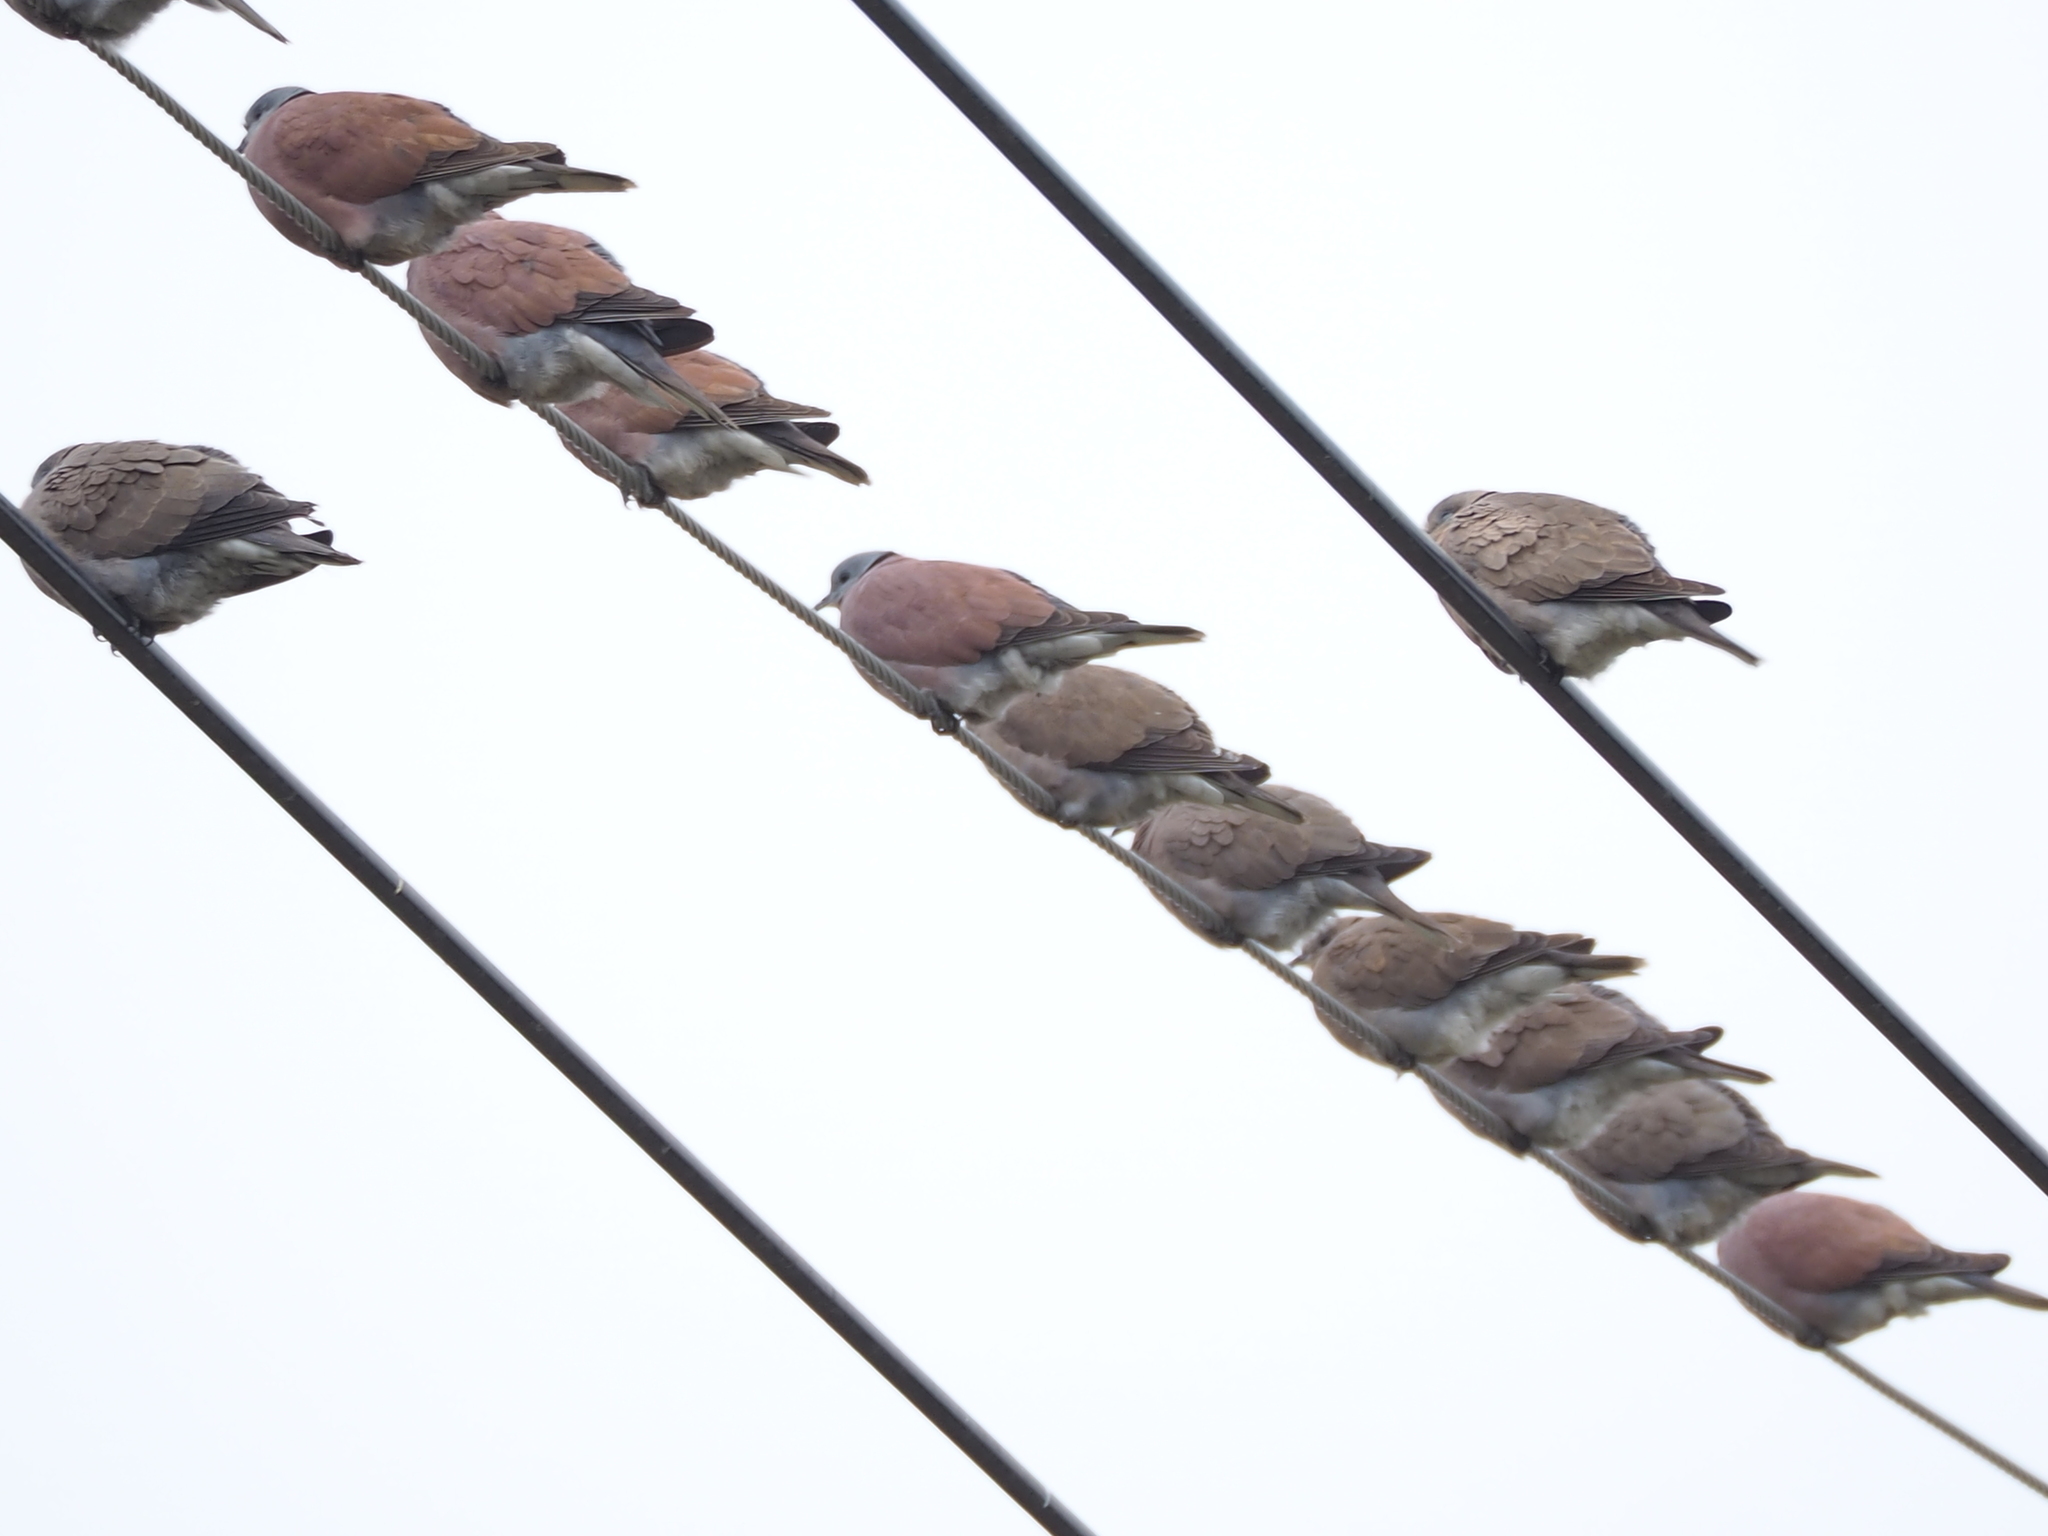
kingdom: Animalia
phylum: Chordata
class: Aves
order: Columbiformes
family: Columbidae
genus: Streptopelia
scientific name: Streptopelia tranquebarica
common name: Red turtle dove
